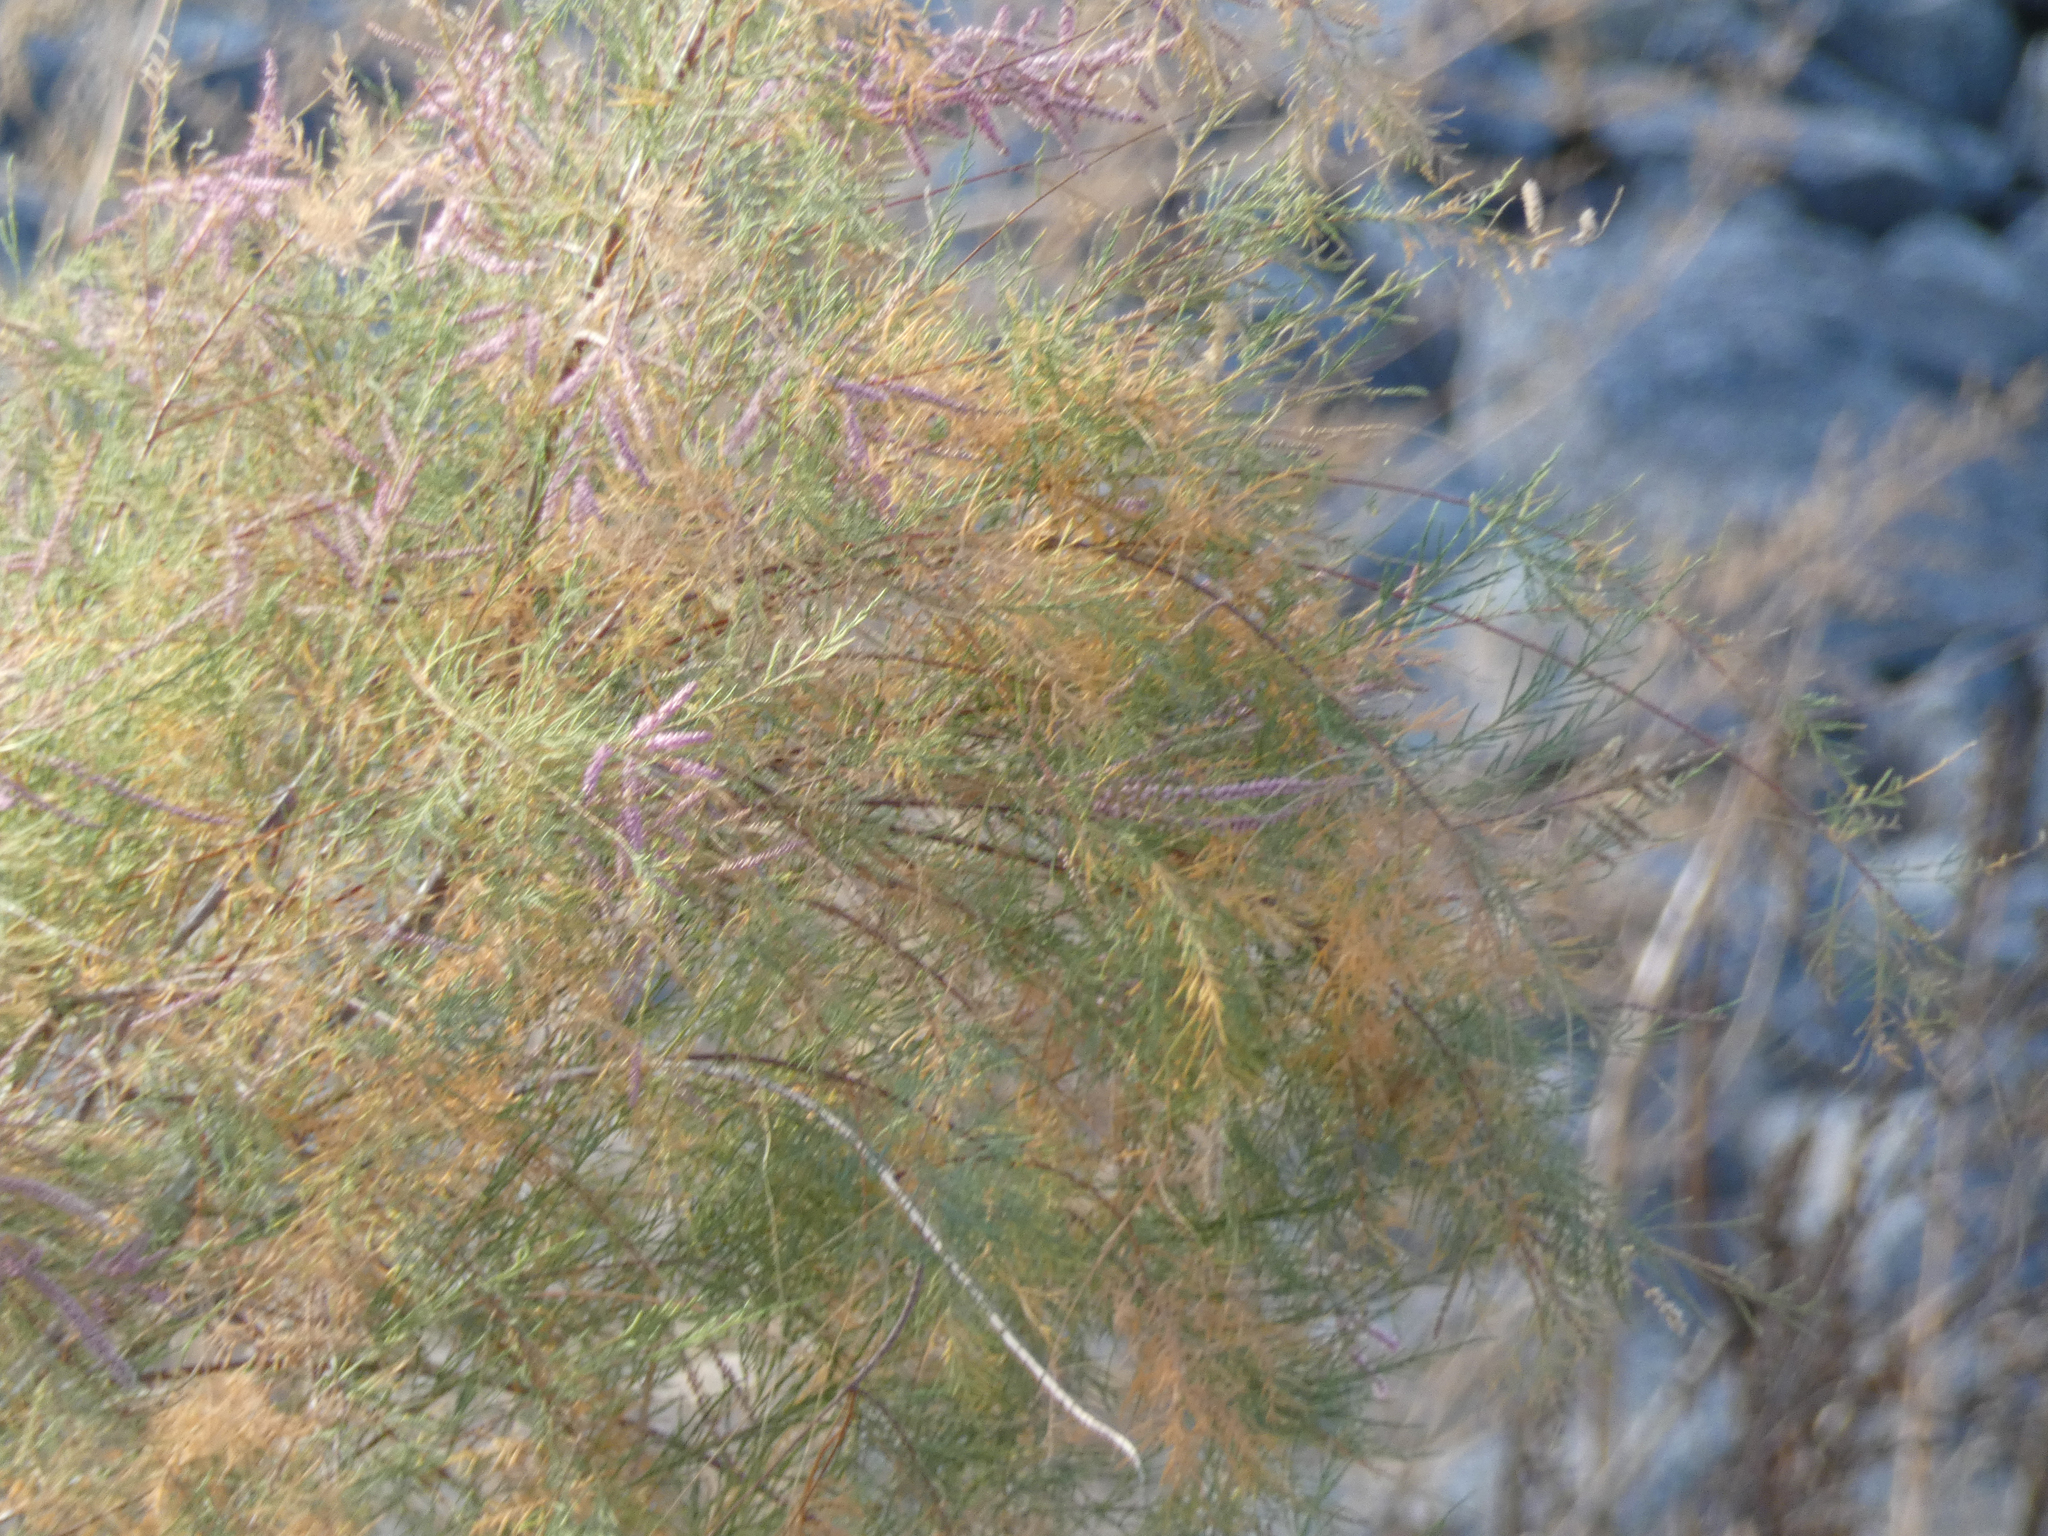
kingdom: Plantae
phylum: Tracheophyta
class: Magnoliopsida
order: Caryophyllales
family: Tamaricaceae
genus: Tamarix
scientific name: Tamarix ramosissima
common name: Pink tamarisk
